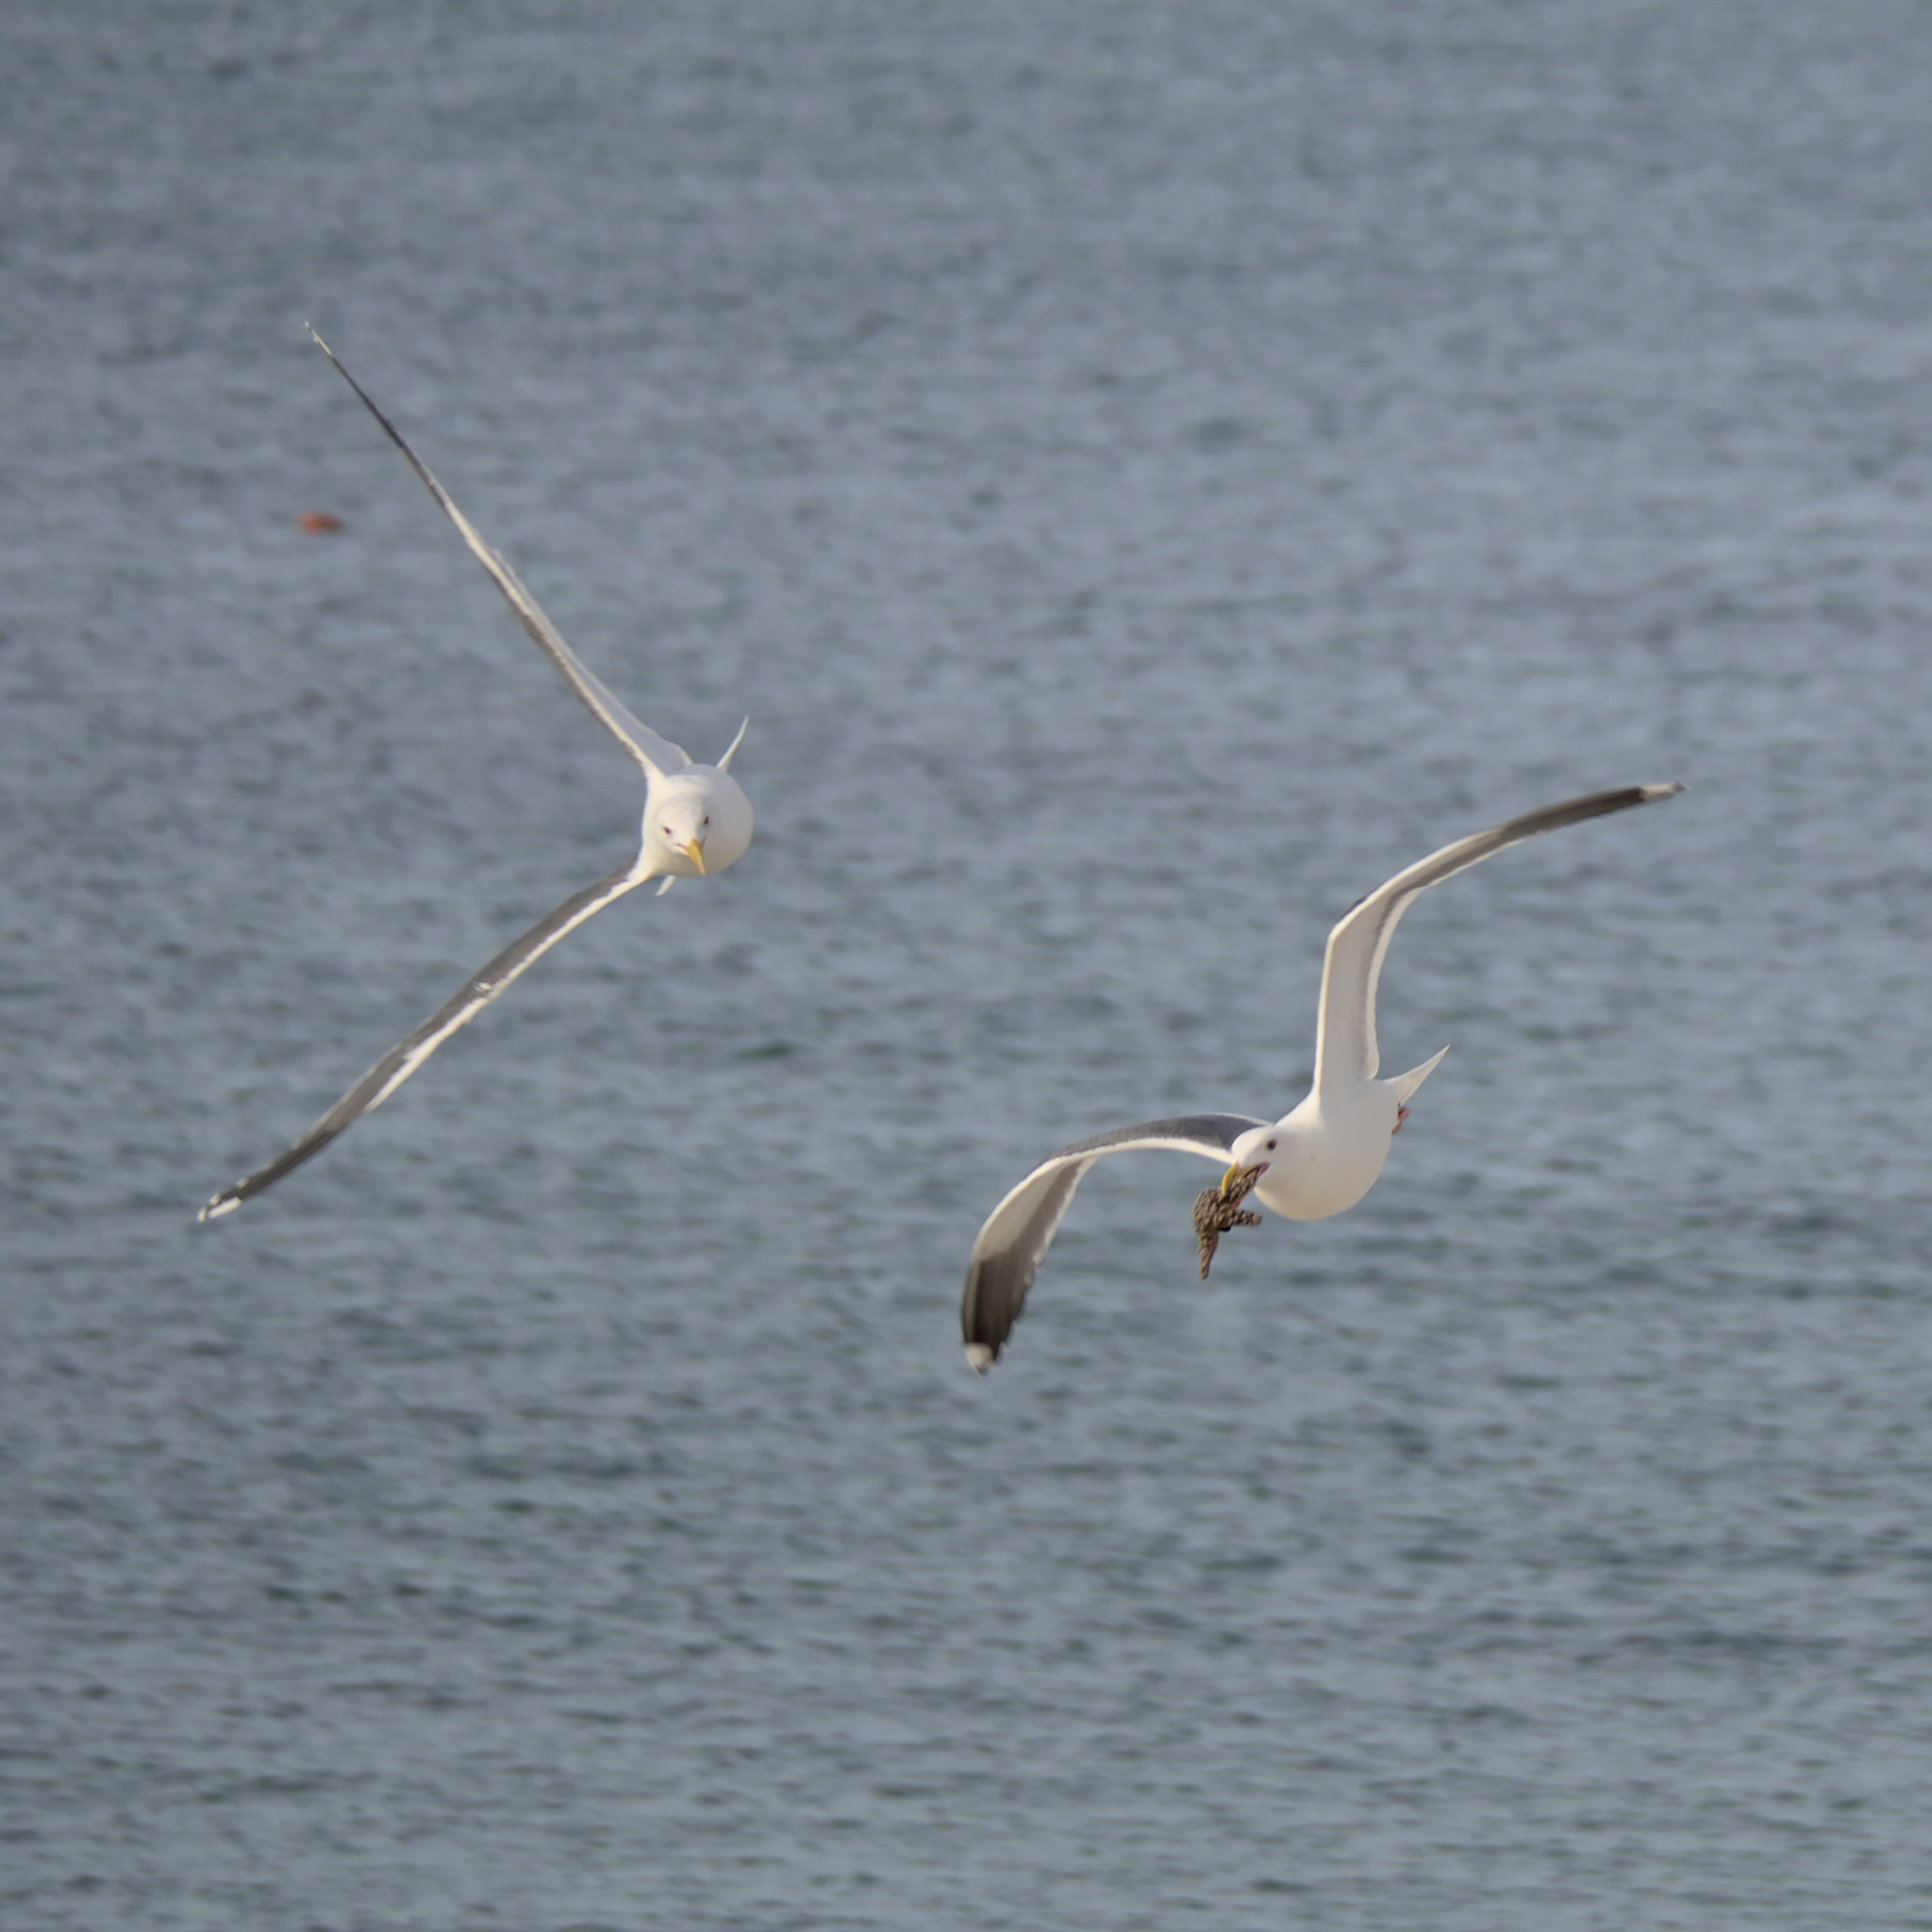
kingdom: Animalia
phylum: Chordata
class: Aves
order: Charadriiformes
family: Laridae
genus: Larus
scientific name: Larus occidentalis
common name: Western gull
